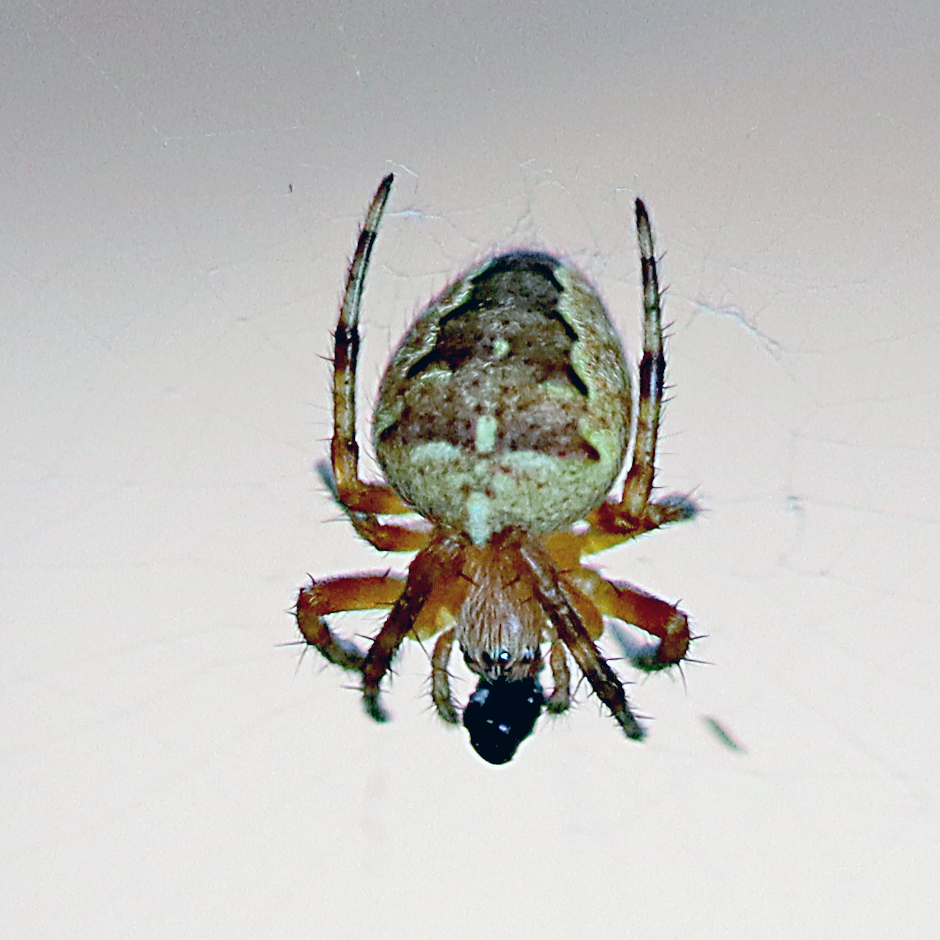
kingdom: Animalia
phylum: Arthropoda
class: Arachnida
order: Araneae
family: Araneidae
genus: Araneus
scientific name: Araneus diadematus
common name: Cross orbweaver
